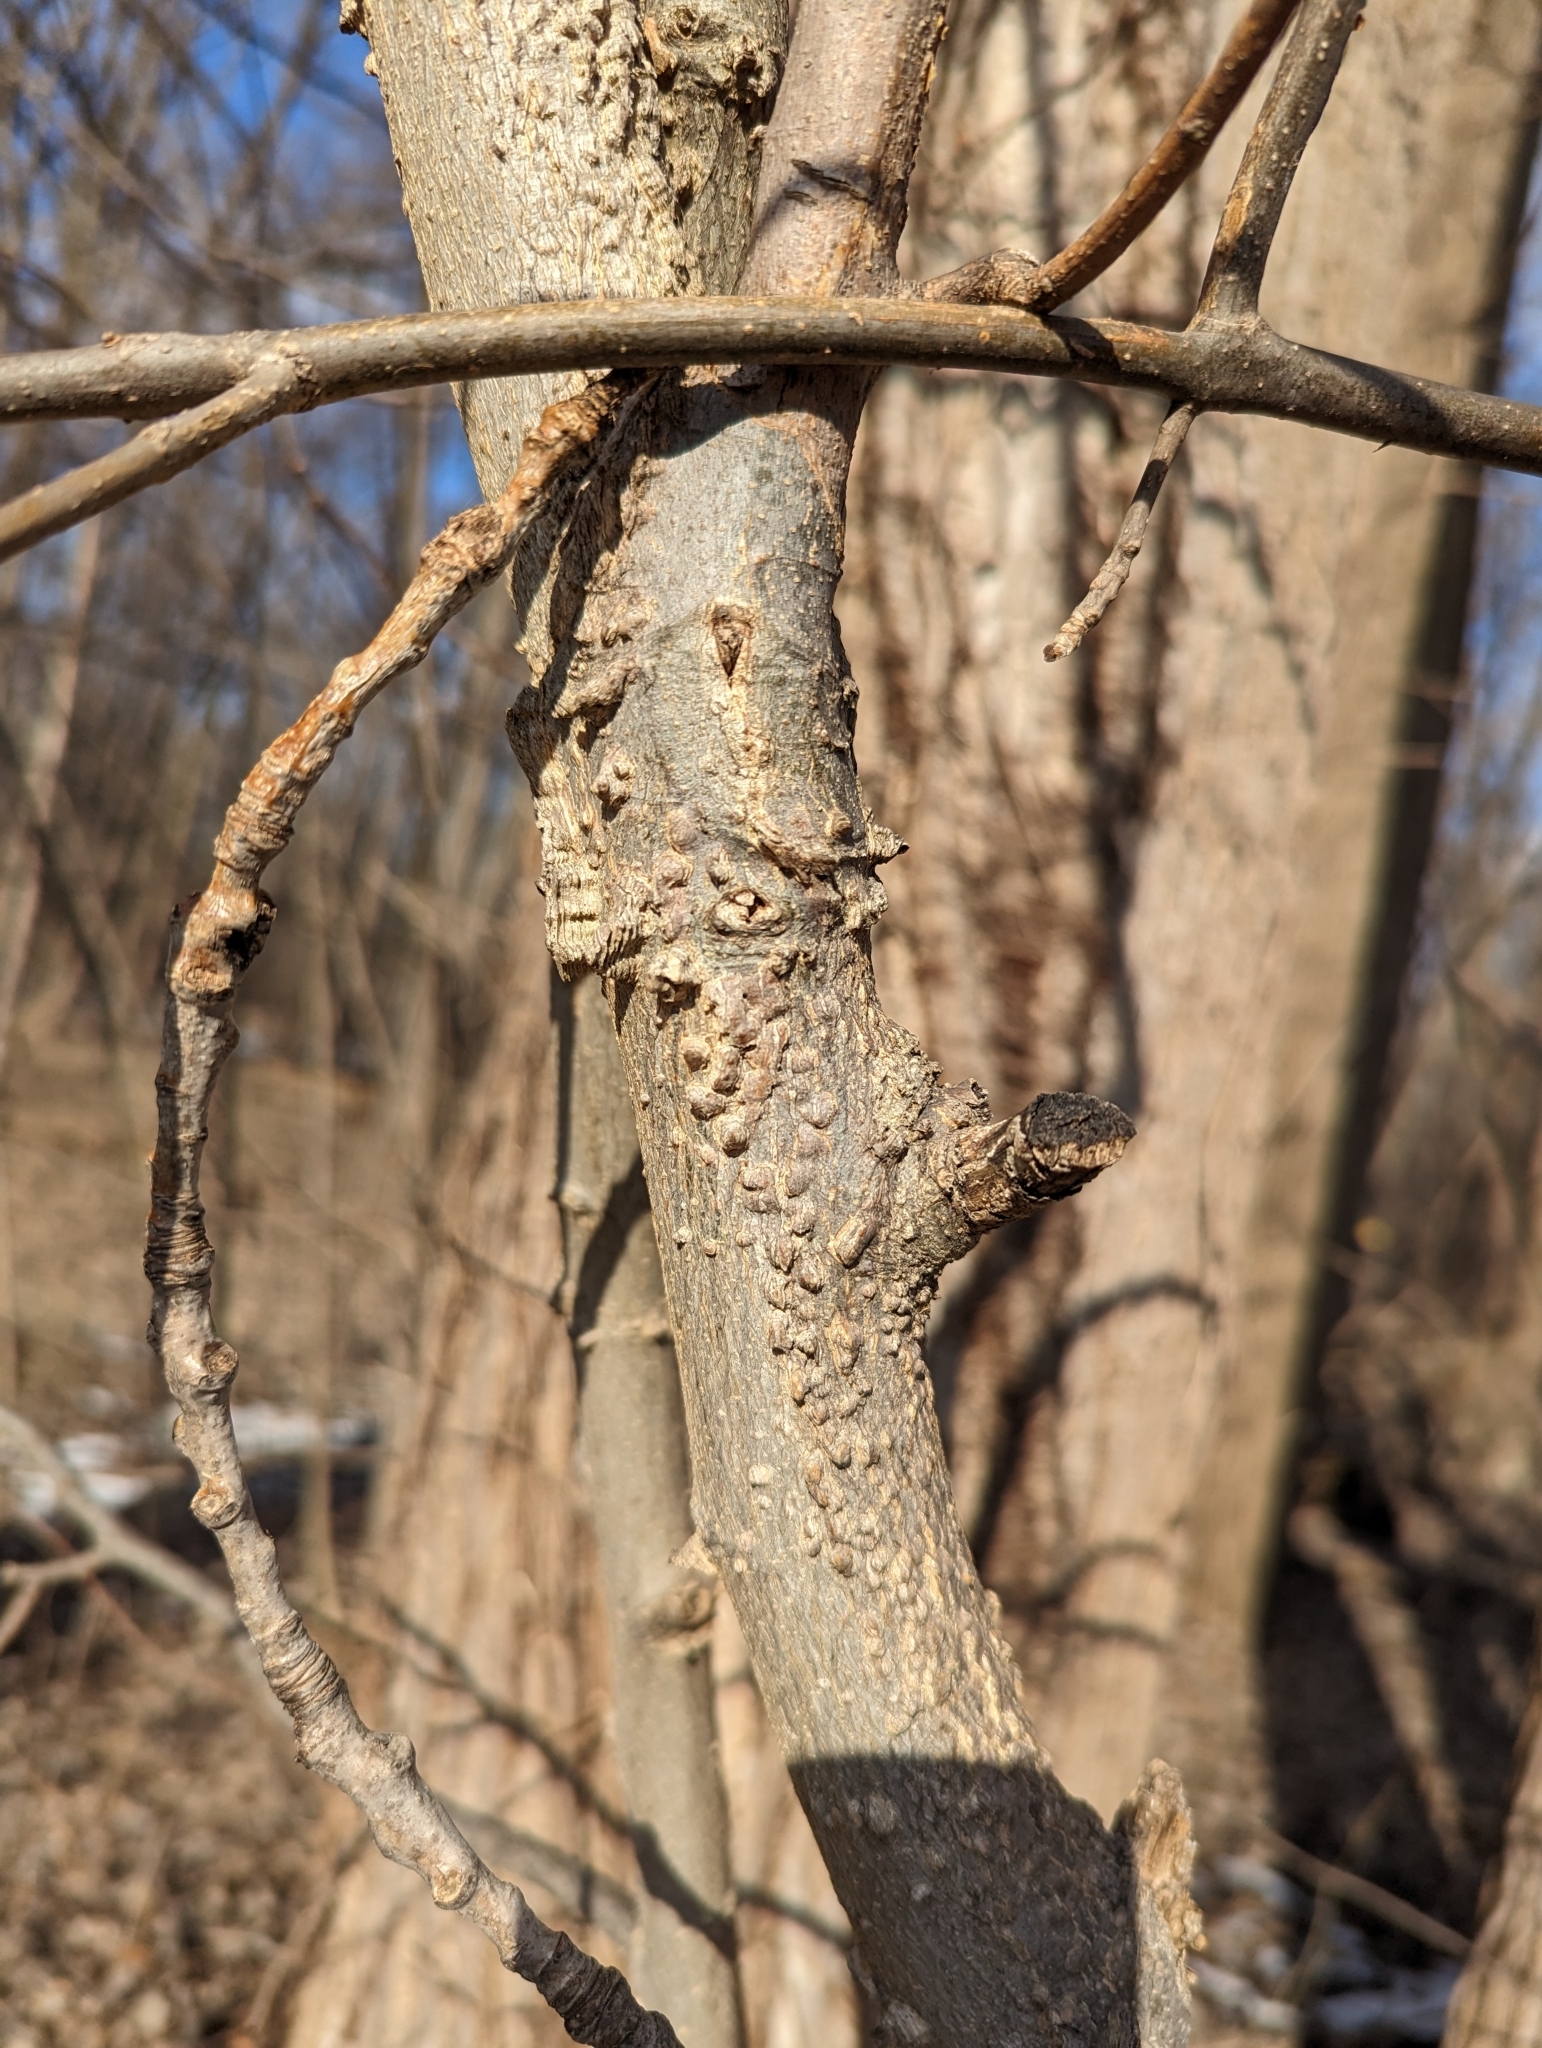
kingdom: Plantae
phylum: Tracheophyta
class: Magnoliopsida
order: Rosales
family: Cannabaceae
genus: Celtis
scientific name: Celtis occidentalis
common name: Common hackberry
